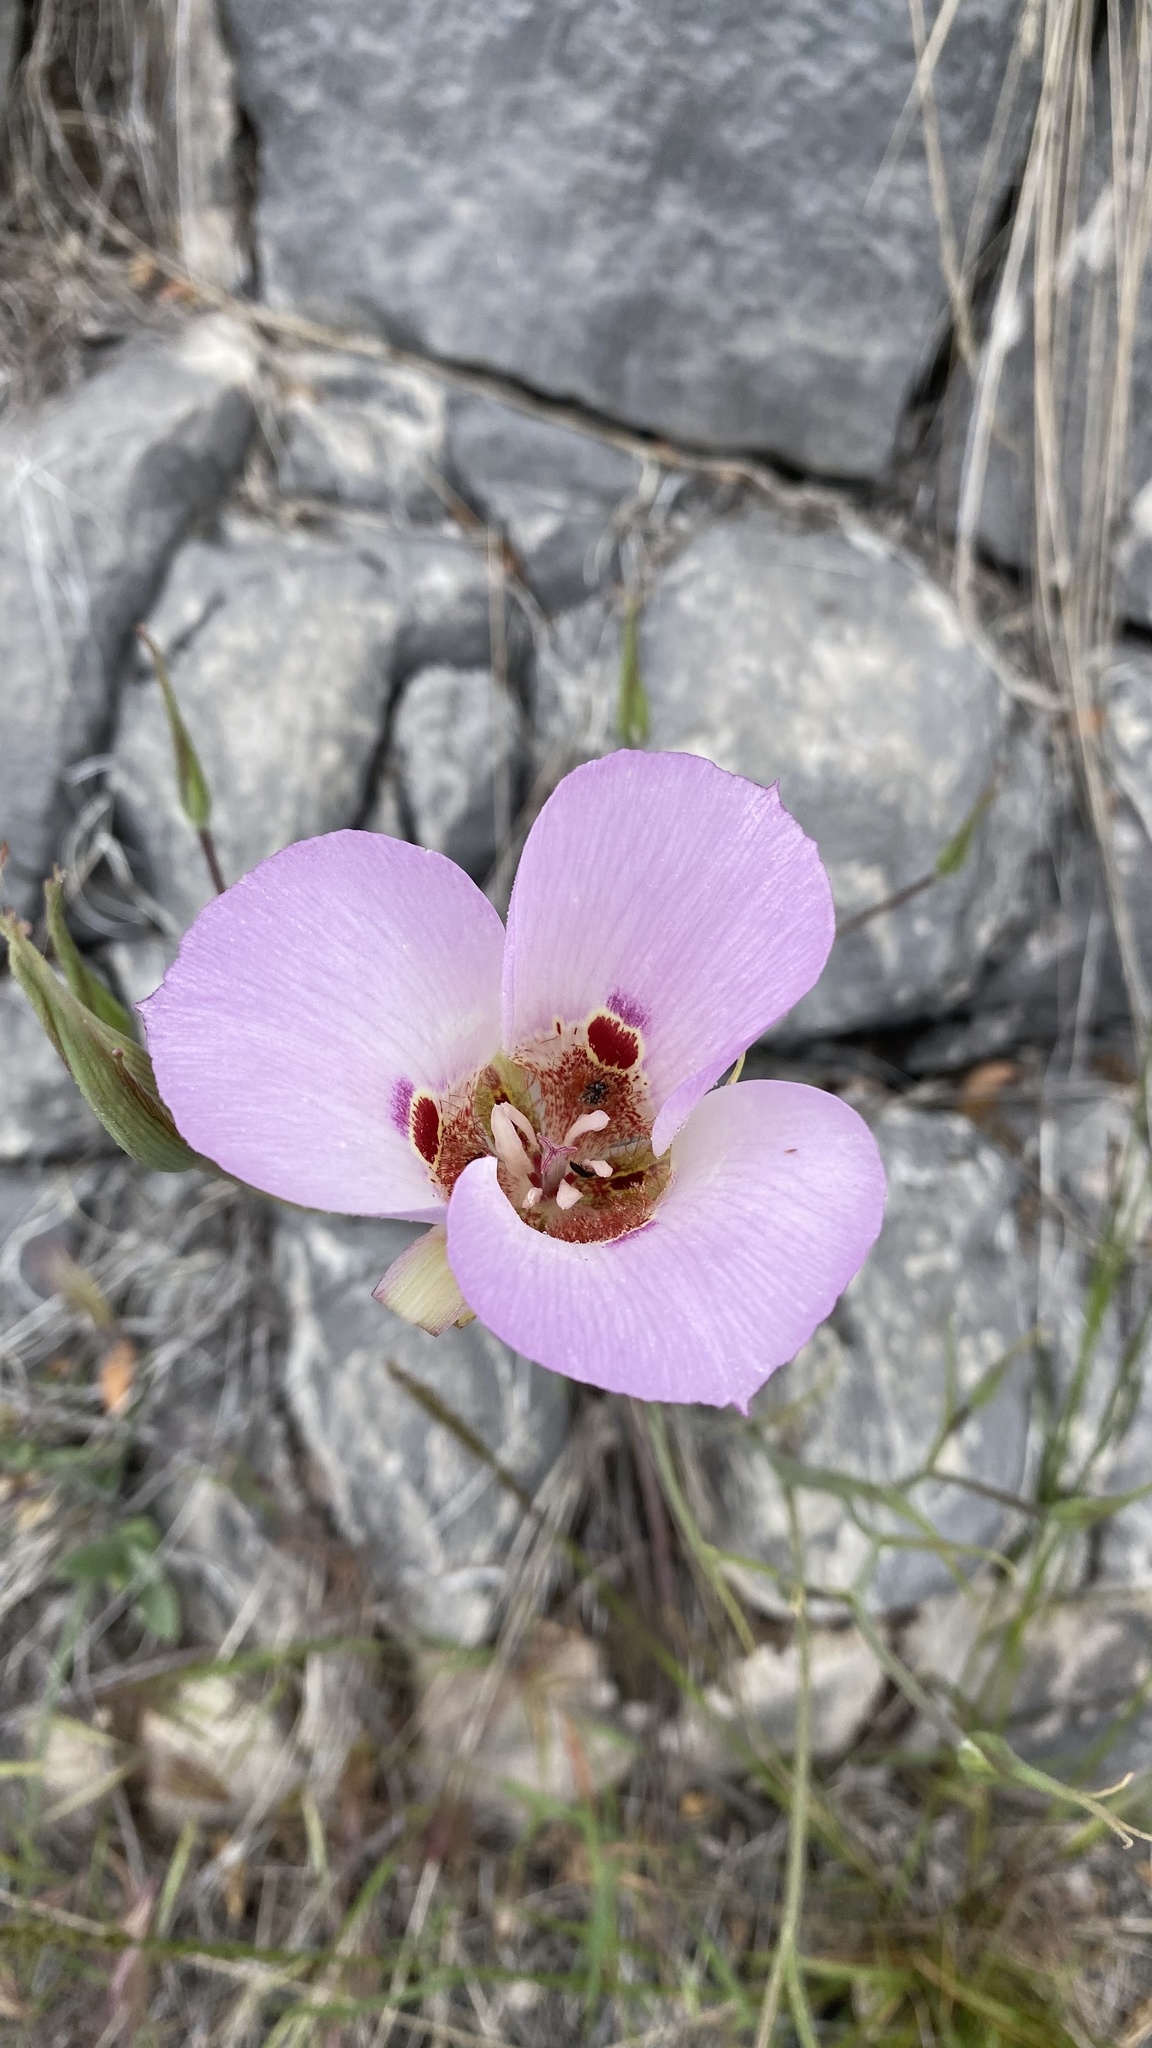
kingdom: Plantae
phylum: Tracheophyta
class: Liliopsida
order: Liliales
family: Liliaceae
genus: Calochortus
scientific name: Calochortus venustus
